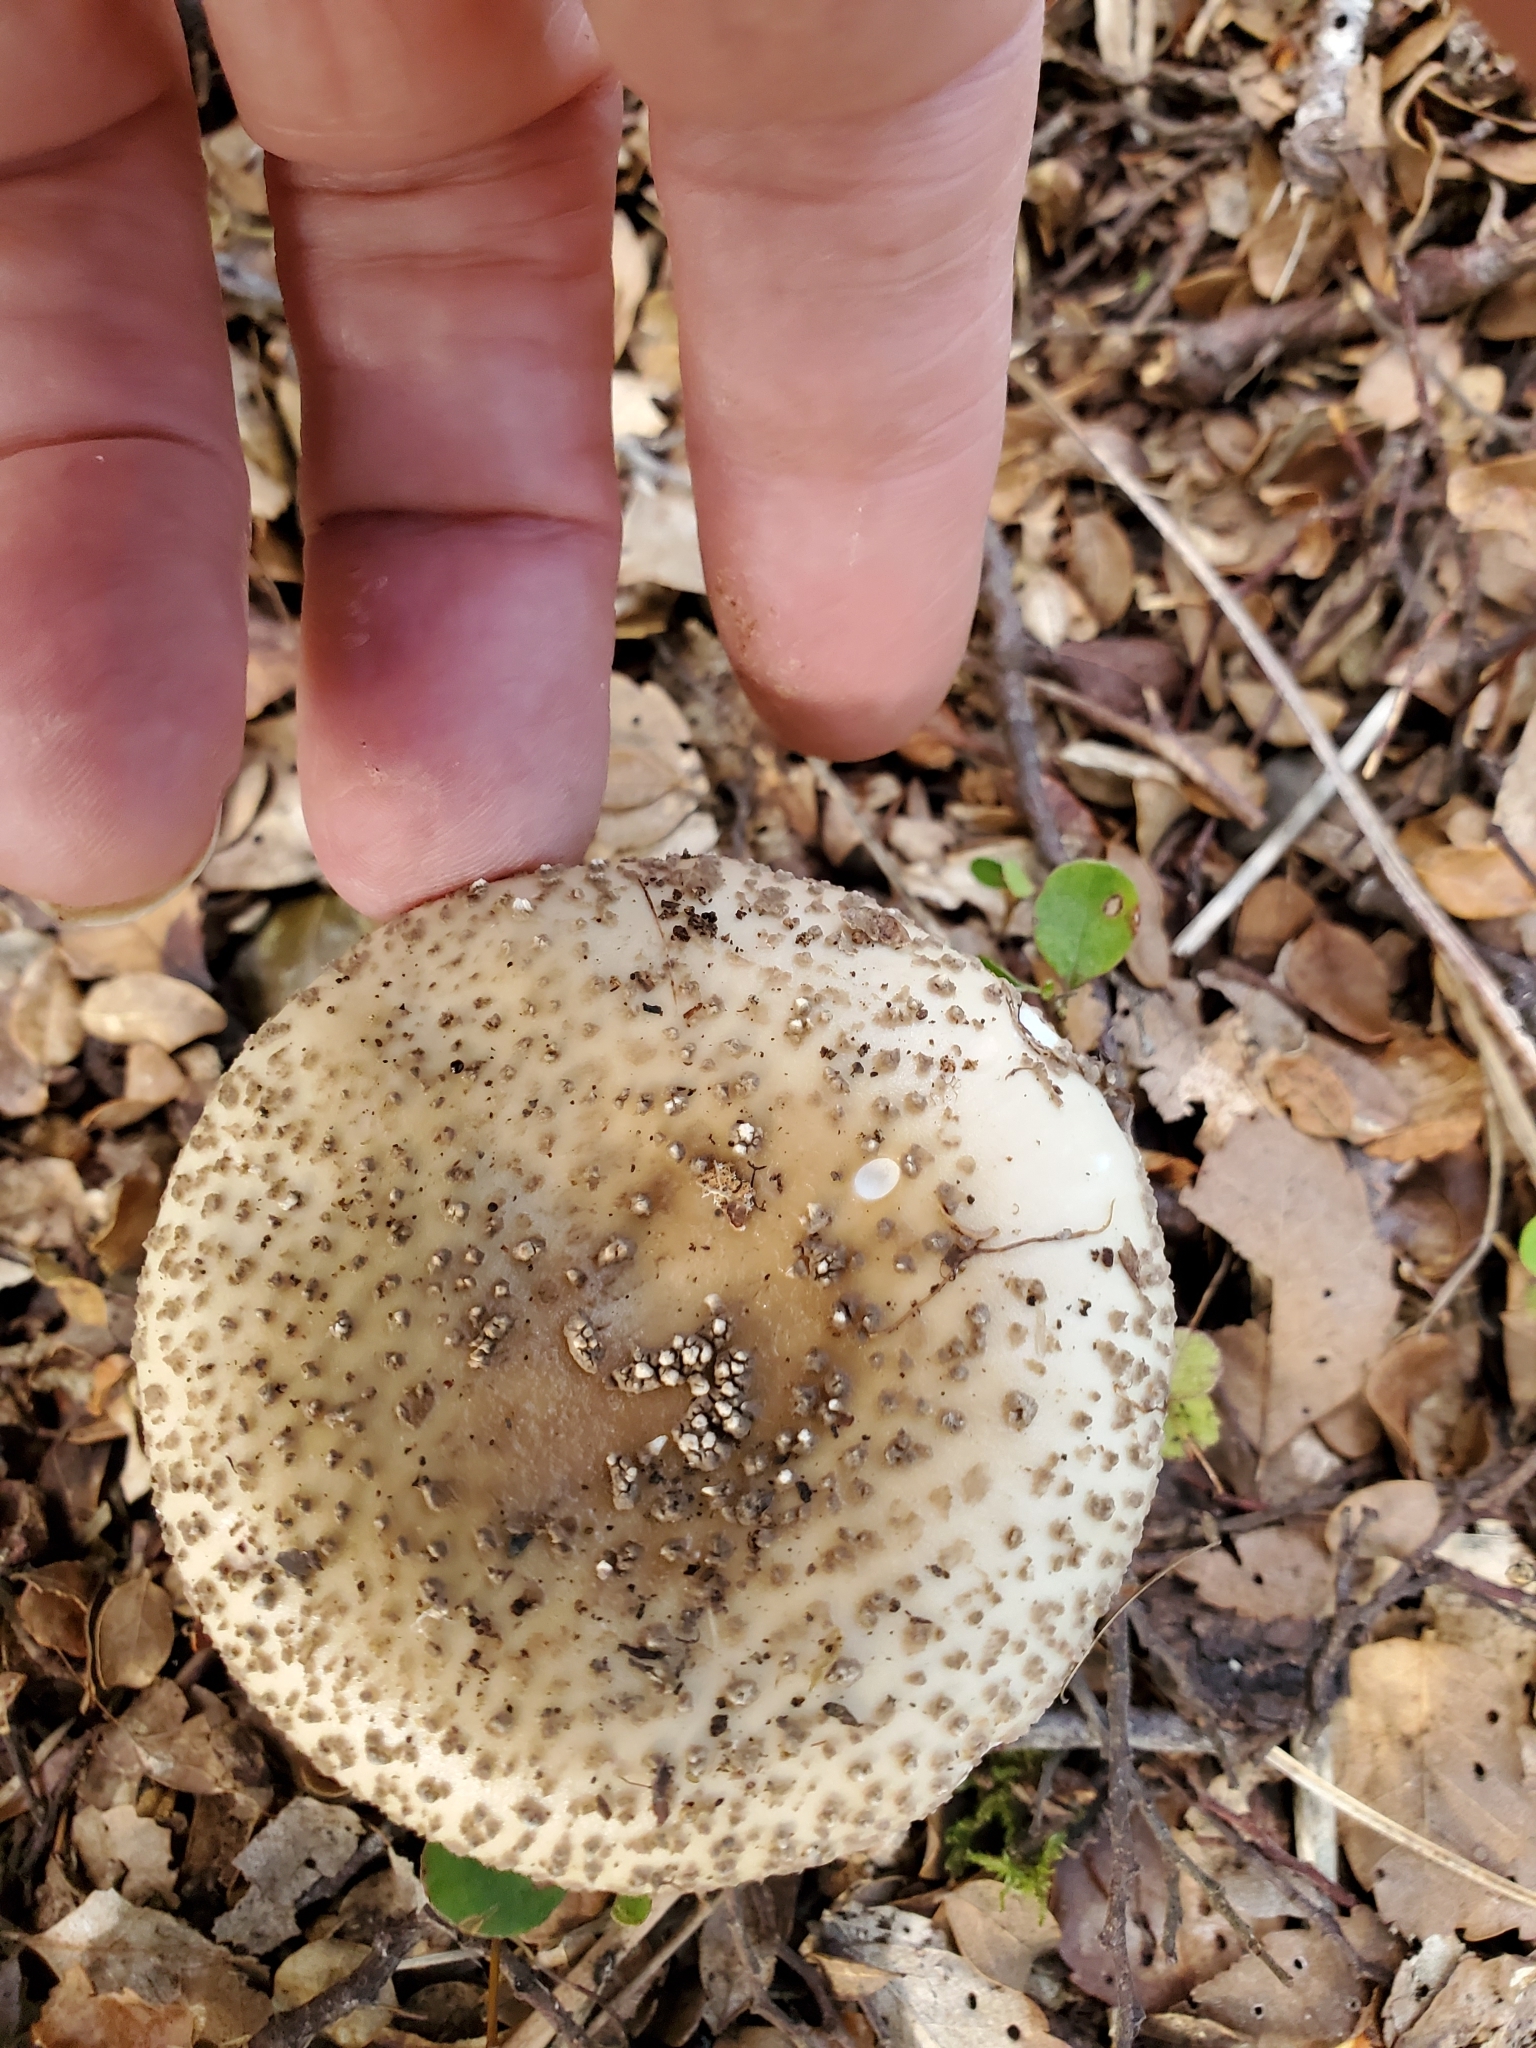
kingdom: Fungi
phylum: Basidiomycota
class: Agaricomycetes
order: Agaricales
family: Amanitaceae
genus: Amanita
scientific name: Amanita australis
